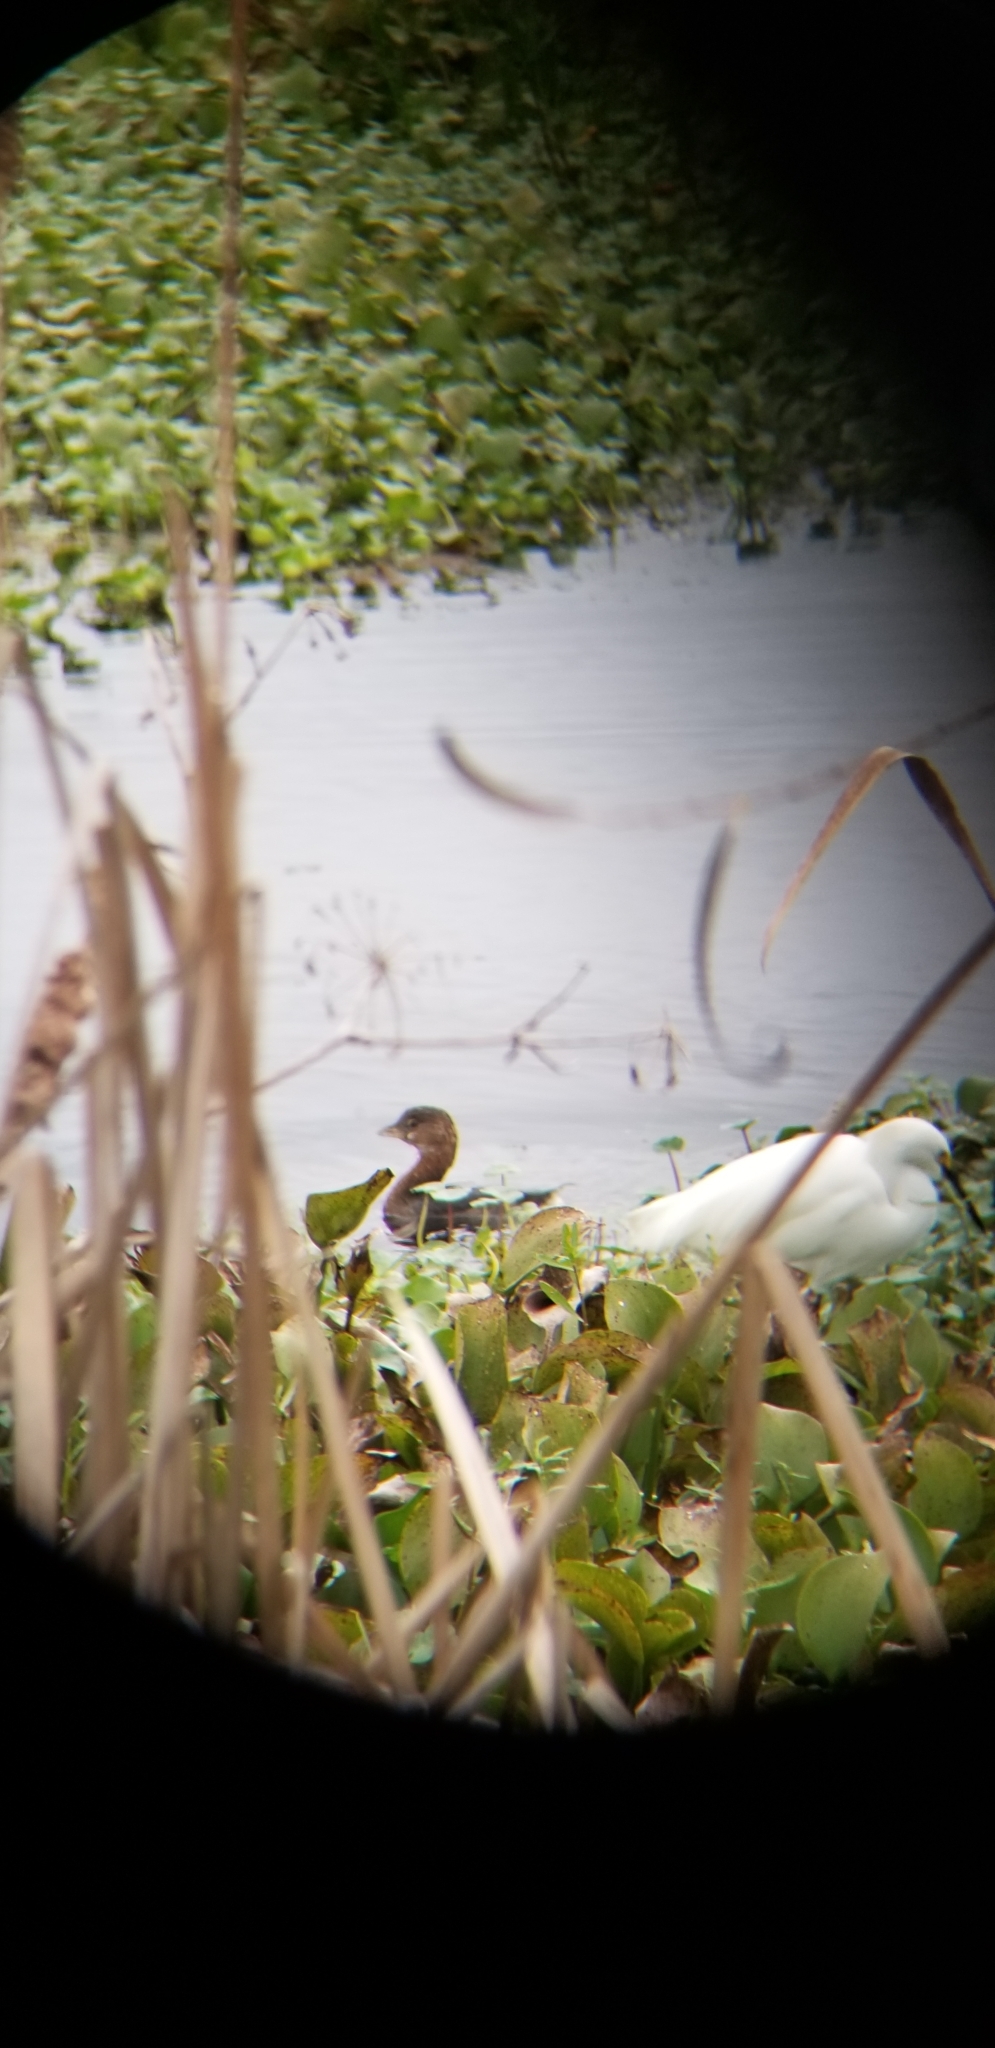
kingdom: Animalia
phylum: Chordata
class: Aves
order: Podicipediformes
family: Podicipedidae
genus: Podilymbus
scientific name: Podilymbus podiceps
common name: Pied-billed grebe
